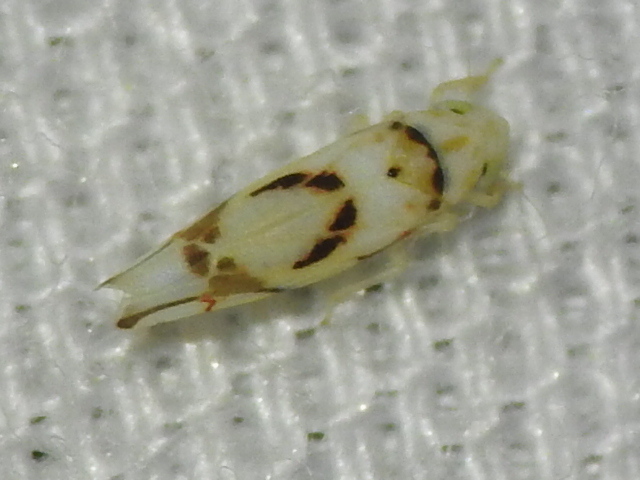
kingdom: Animalia
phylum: Arthropoda
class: Insecta
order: Hemiptera
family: Cicadellidae
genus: Eratoneura
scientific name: Eratoneura lunata
